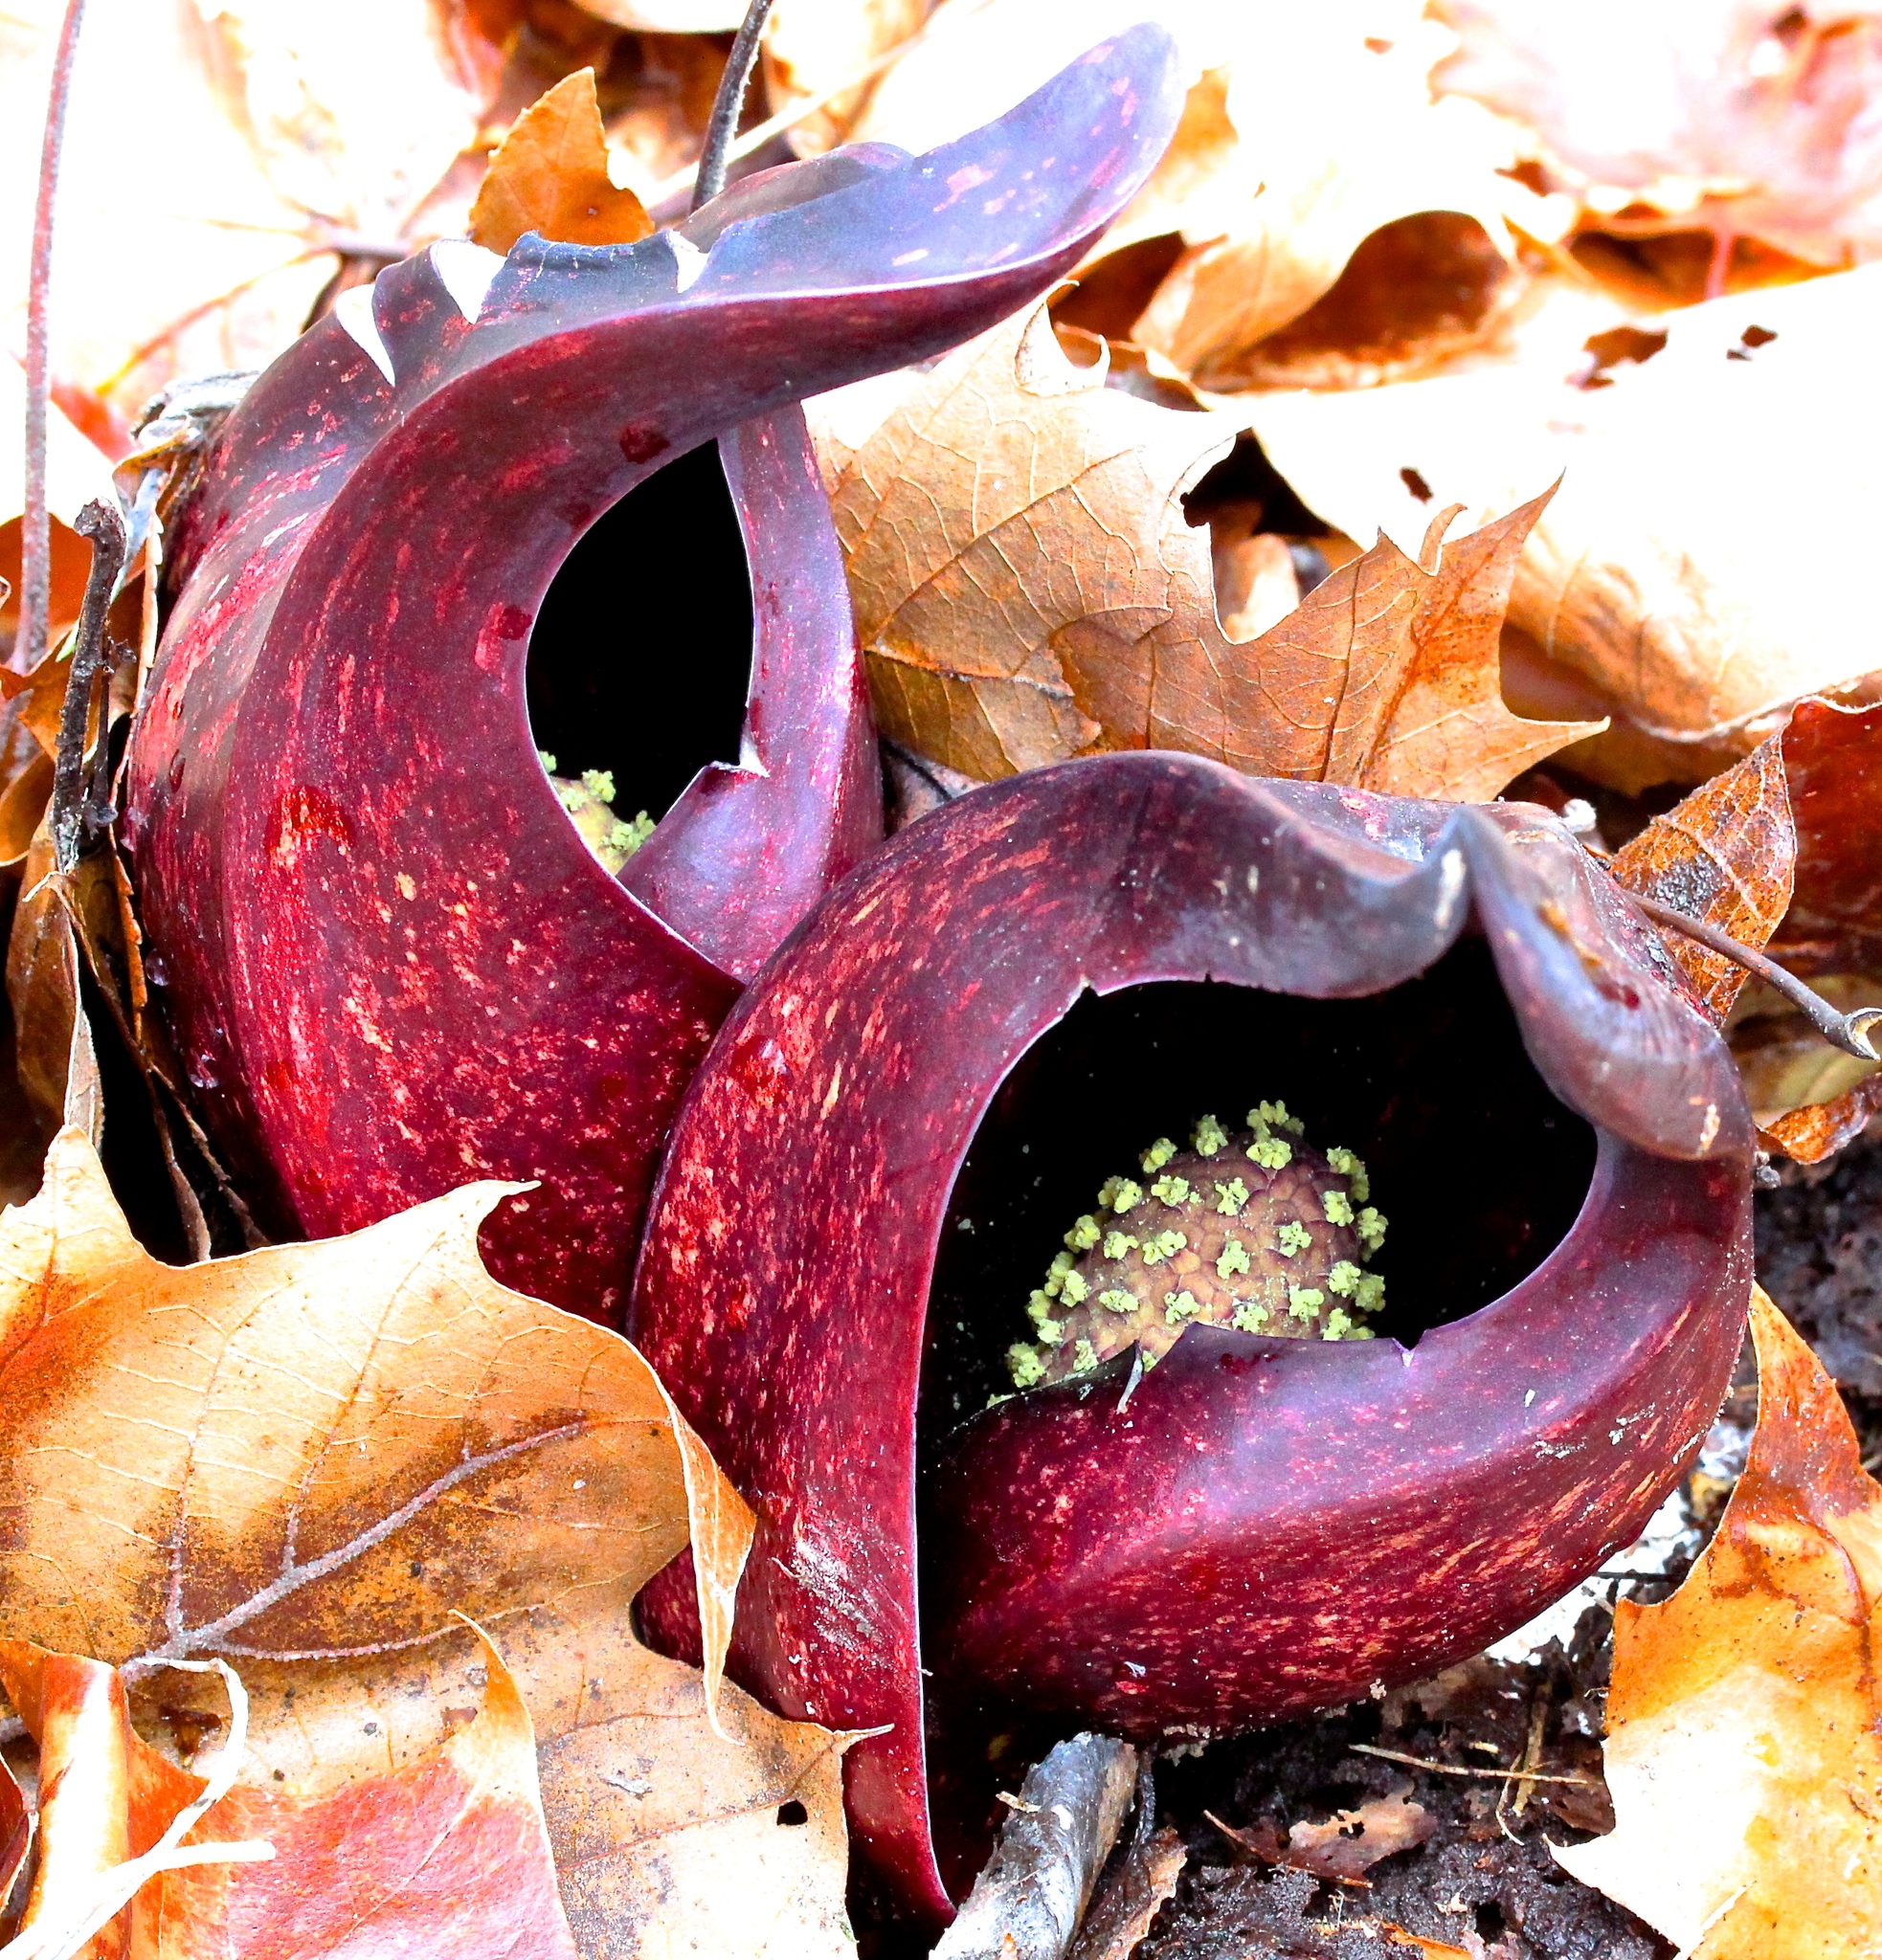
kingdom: Plantae
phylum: Tracheophyta
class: Liliopsida
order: Alismatales
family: Araceae
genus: Symplocarpus
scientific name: Symplocarpus foetidus
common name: Eastern skunk cabbage
